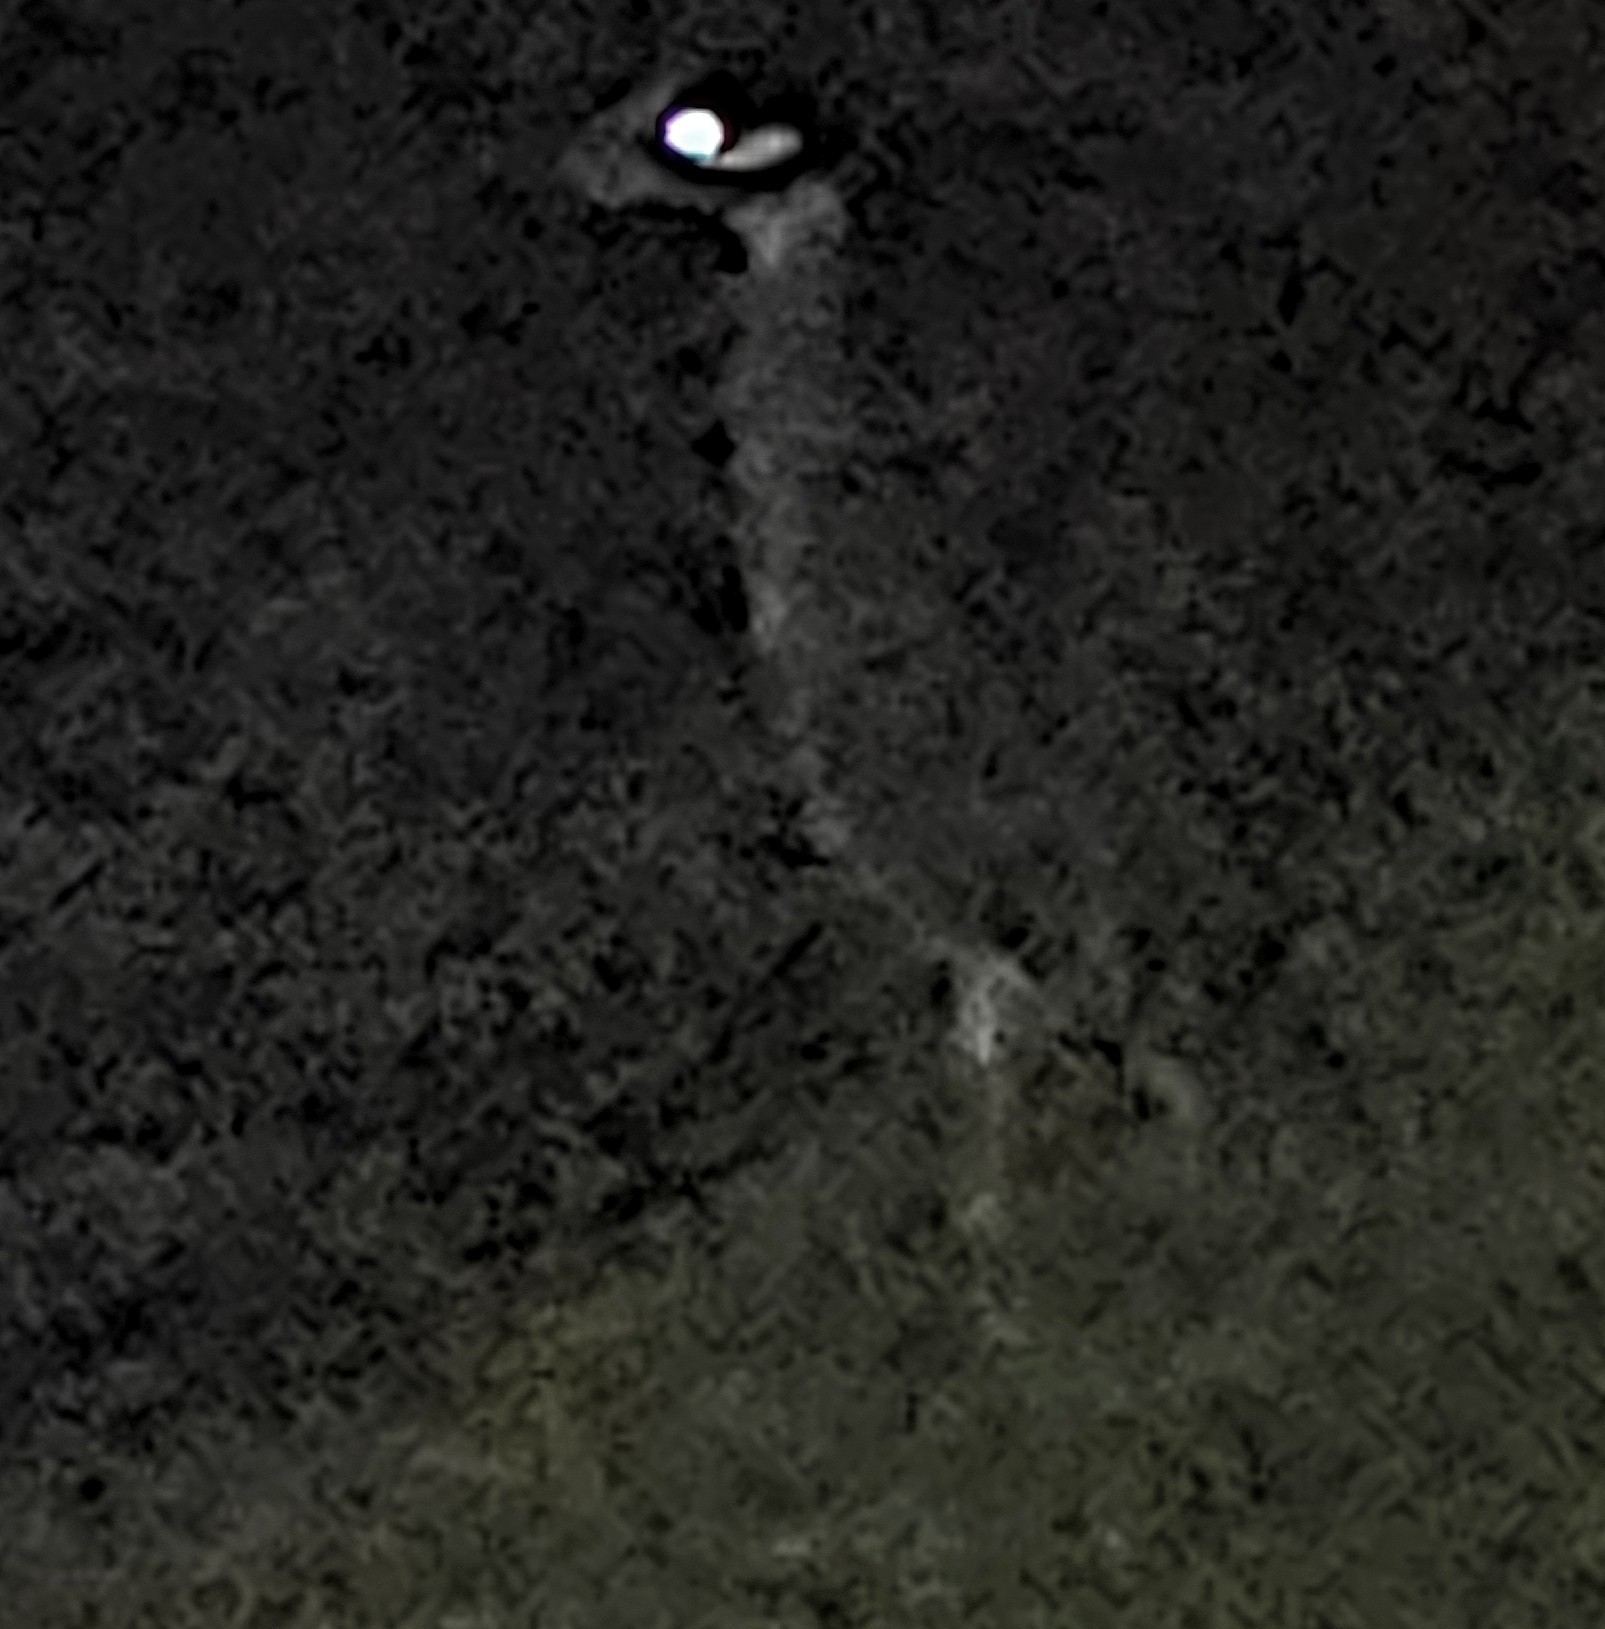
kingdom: Animalia
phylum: Chordata
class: Aves
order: Pelecaniformes
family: Ardeidae
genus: Nyctanassa
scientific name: Nyctanassa violacea
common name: Yellow-crowned night heron
